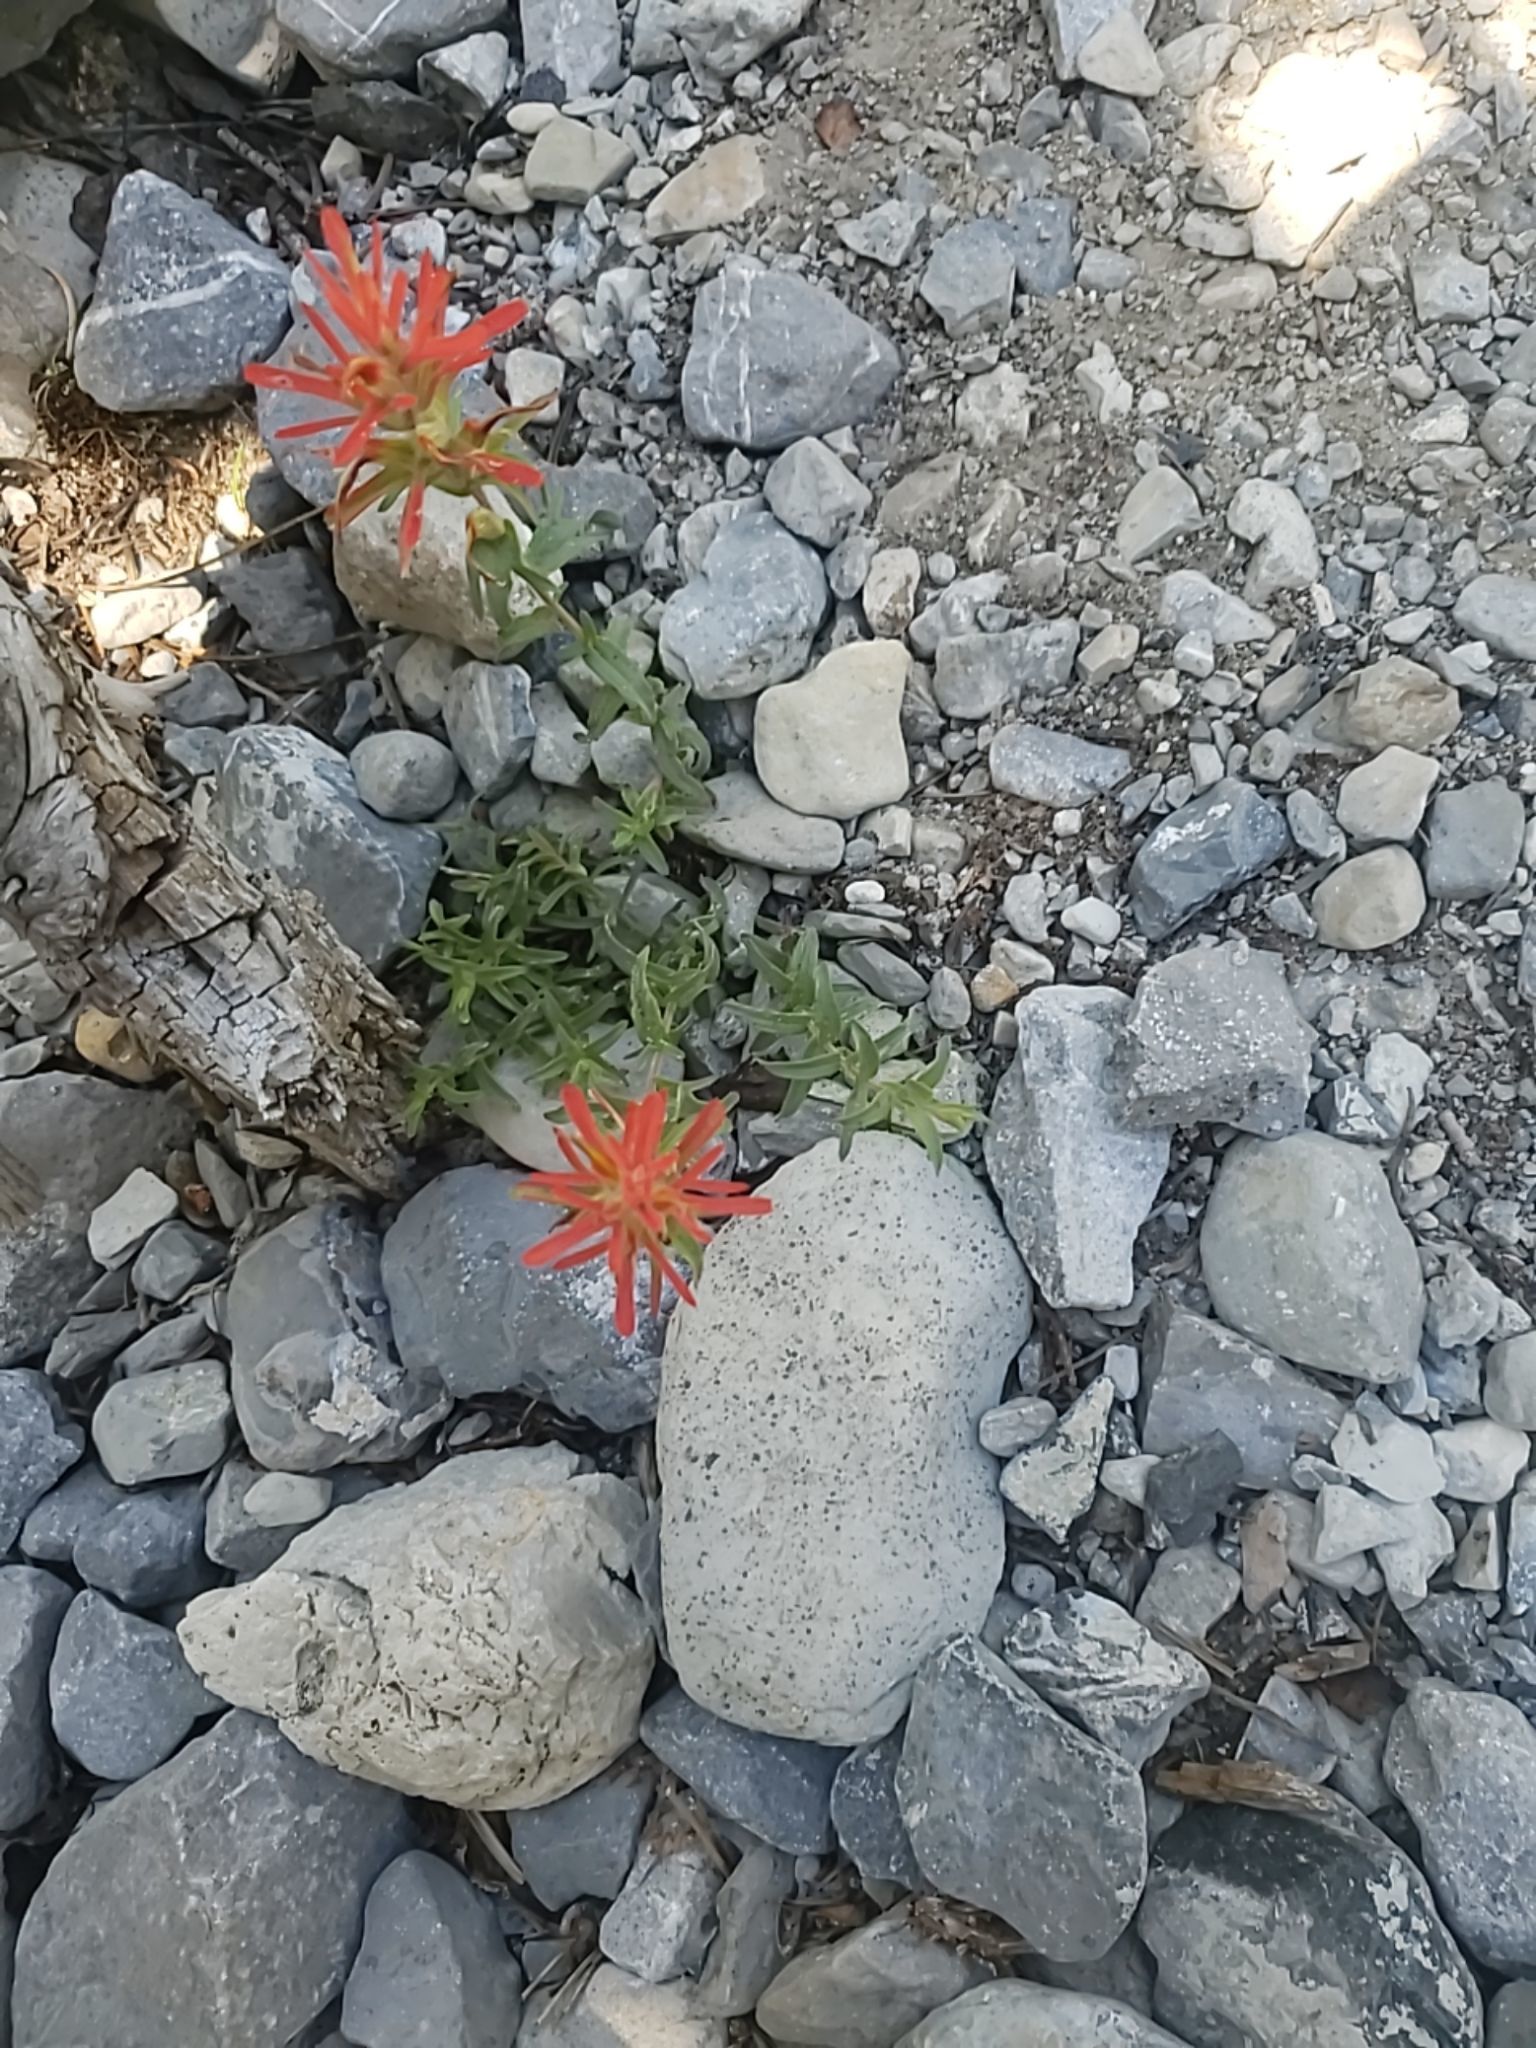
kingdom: Plantae
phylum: Tracheophyta
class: Magnoliopsida
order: Lamiales
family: Orobanchaceae
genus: Castilleja
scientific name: Castilleja martini
